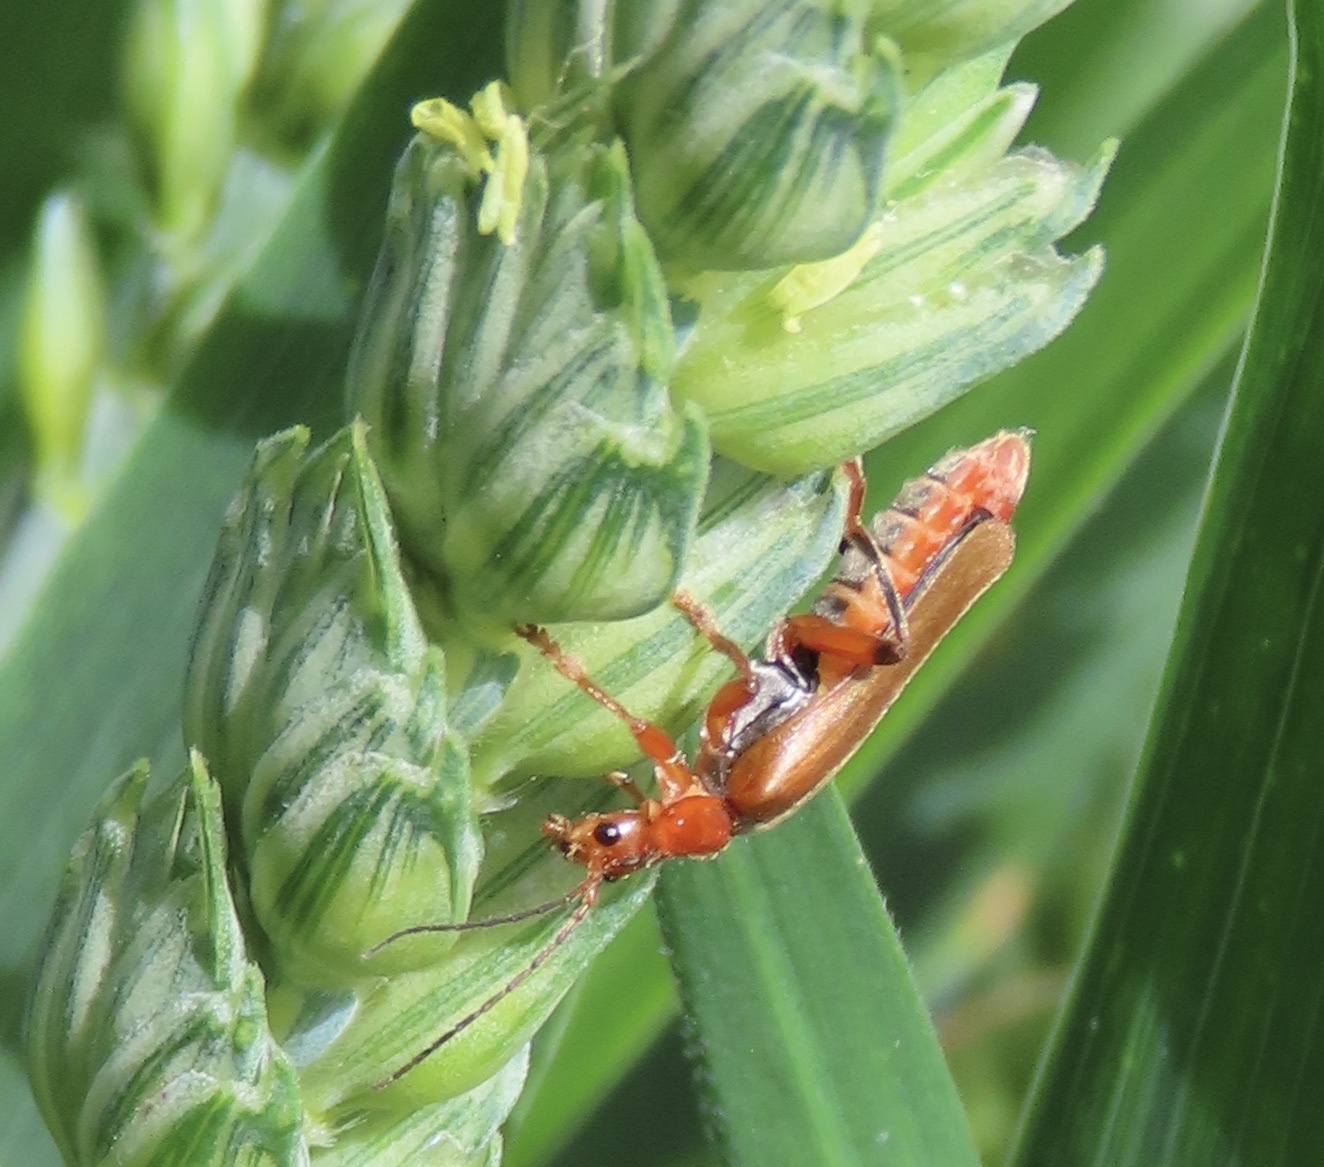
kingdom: Animalia
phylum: Arthropoda
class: Insecta
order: Coleoptera
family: Cantharidae
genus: Cantharis
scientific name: Cantharis livida
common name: Livid soldier beetle
